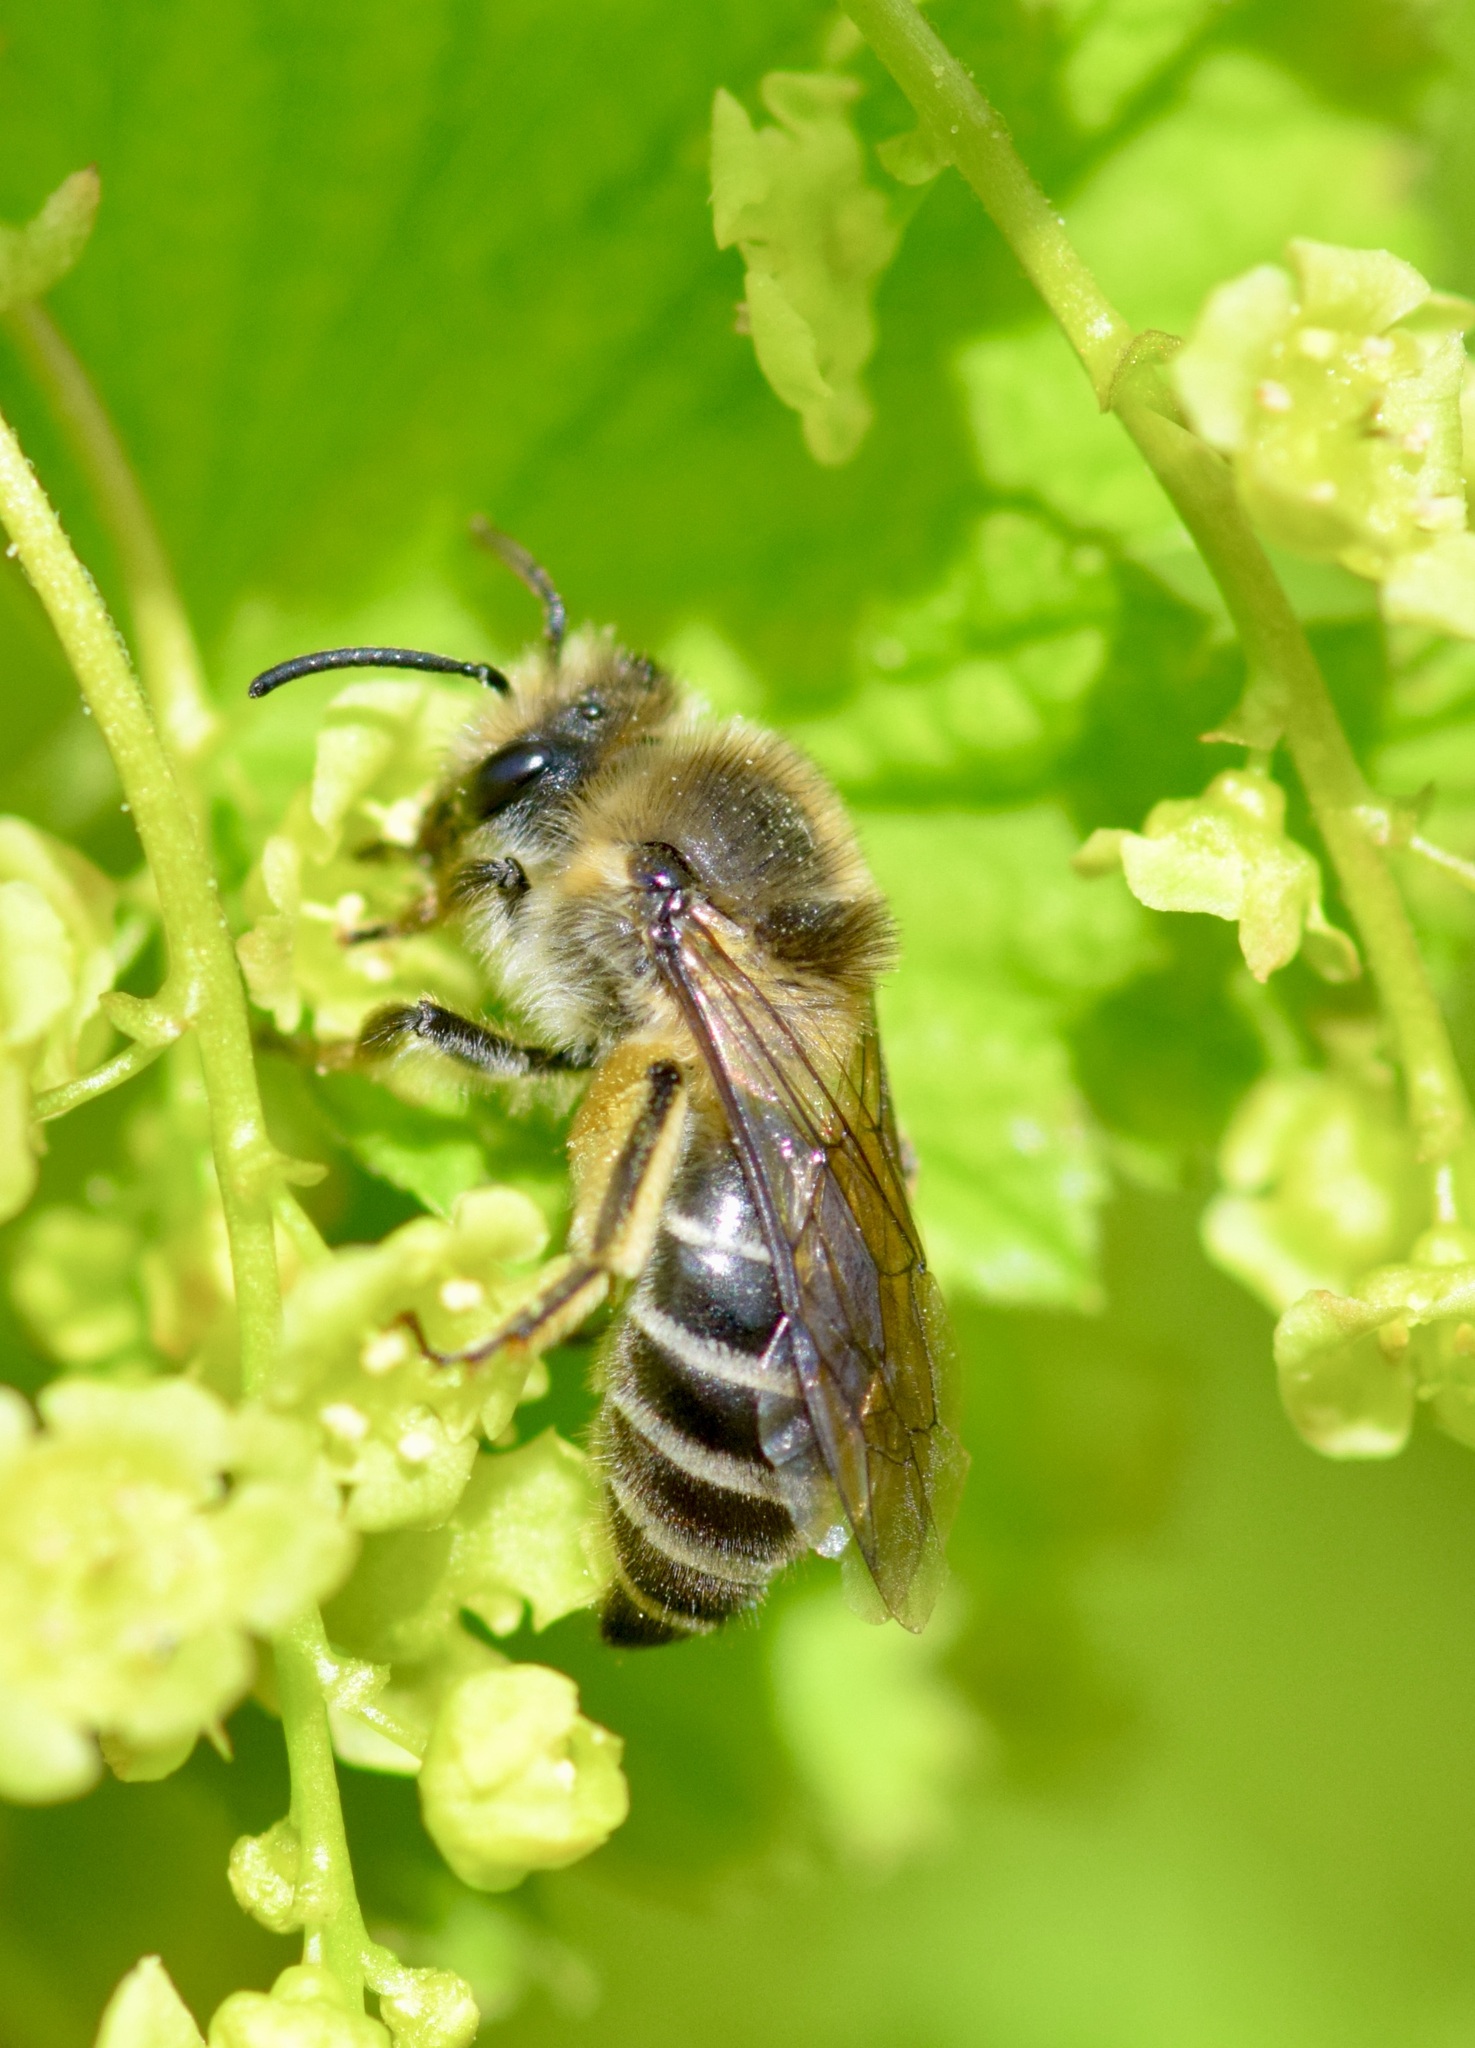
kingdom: Animalia
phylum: Arthropoda
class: Insecta
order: Hymenoptera
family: Colletidae
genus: Colletes
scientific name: Colletes inaequalis
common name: Unequal cellophane bee
